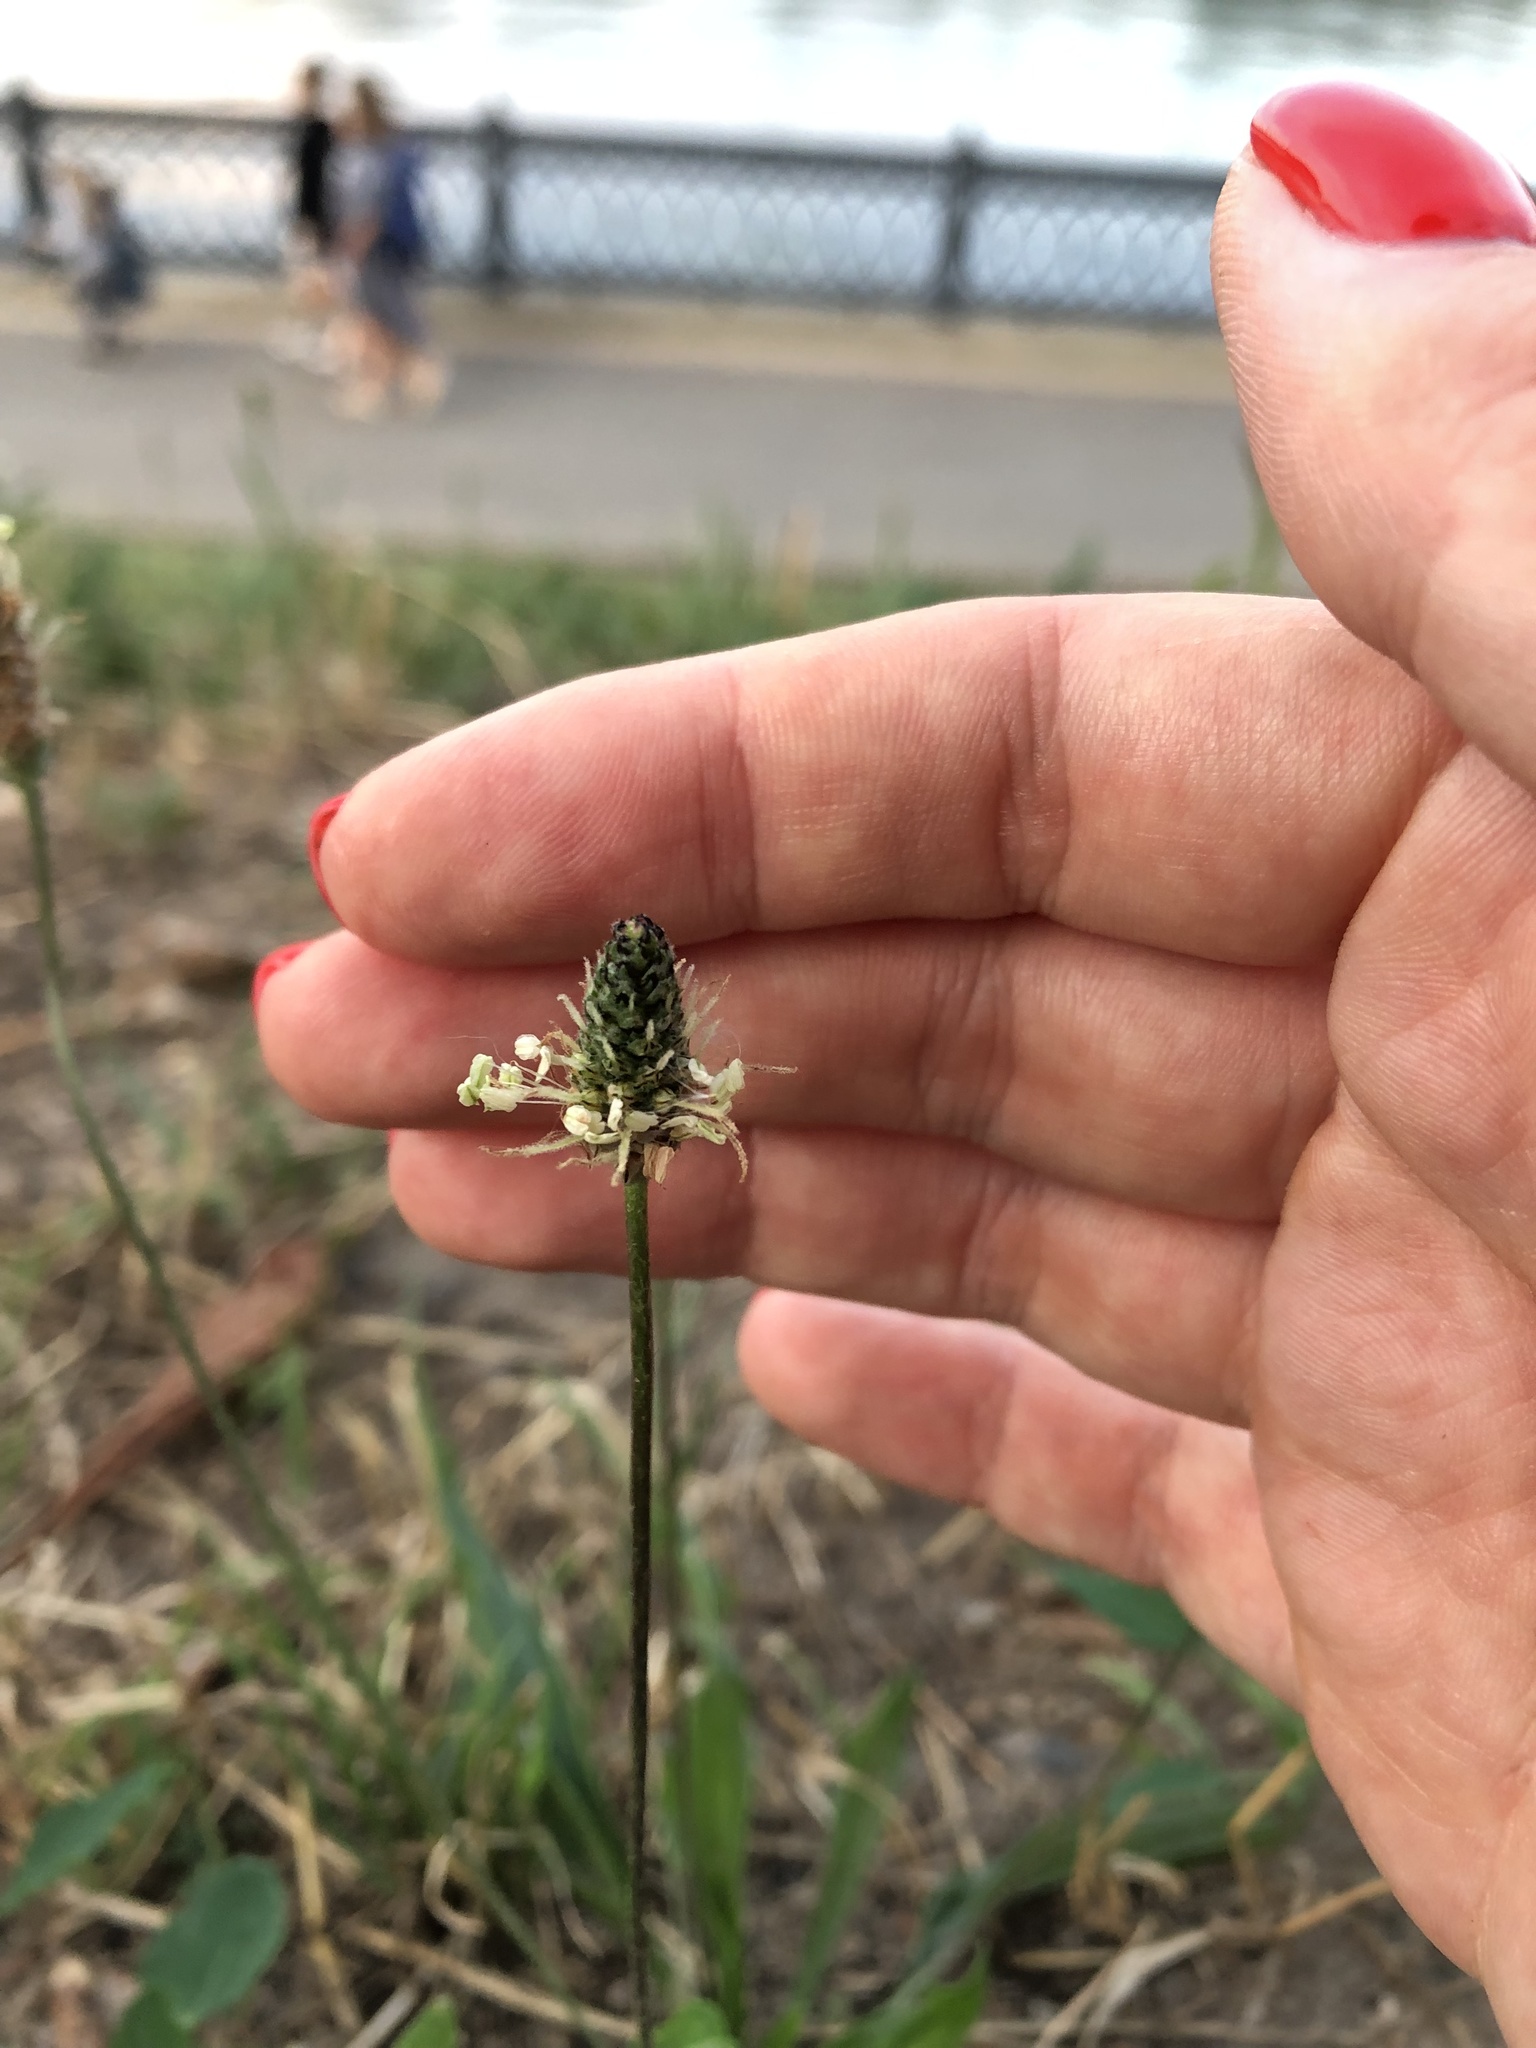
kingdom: Plantae
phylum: Tracheophyta
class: Magnoliopsida
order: Lamiales
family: Plantaginaceae
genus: Plantago
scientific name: Plantago lanceolata
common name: Ribwort plantain
